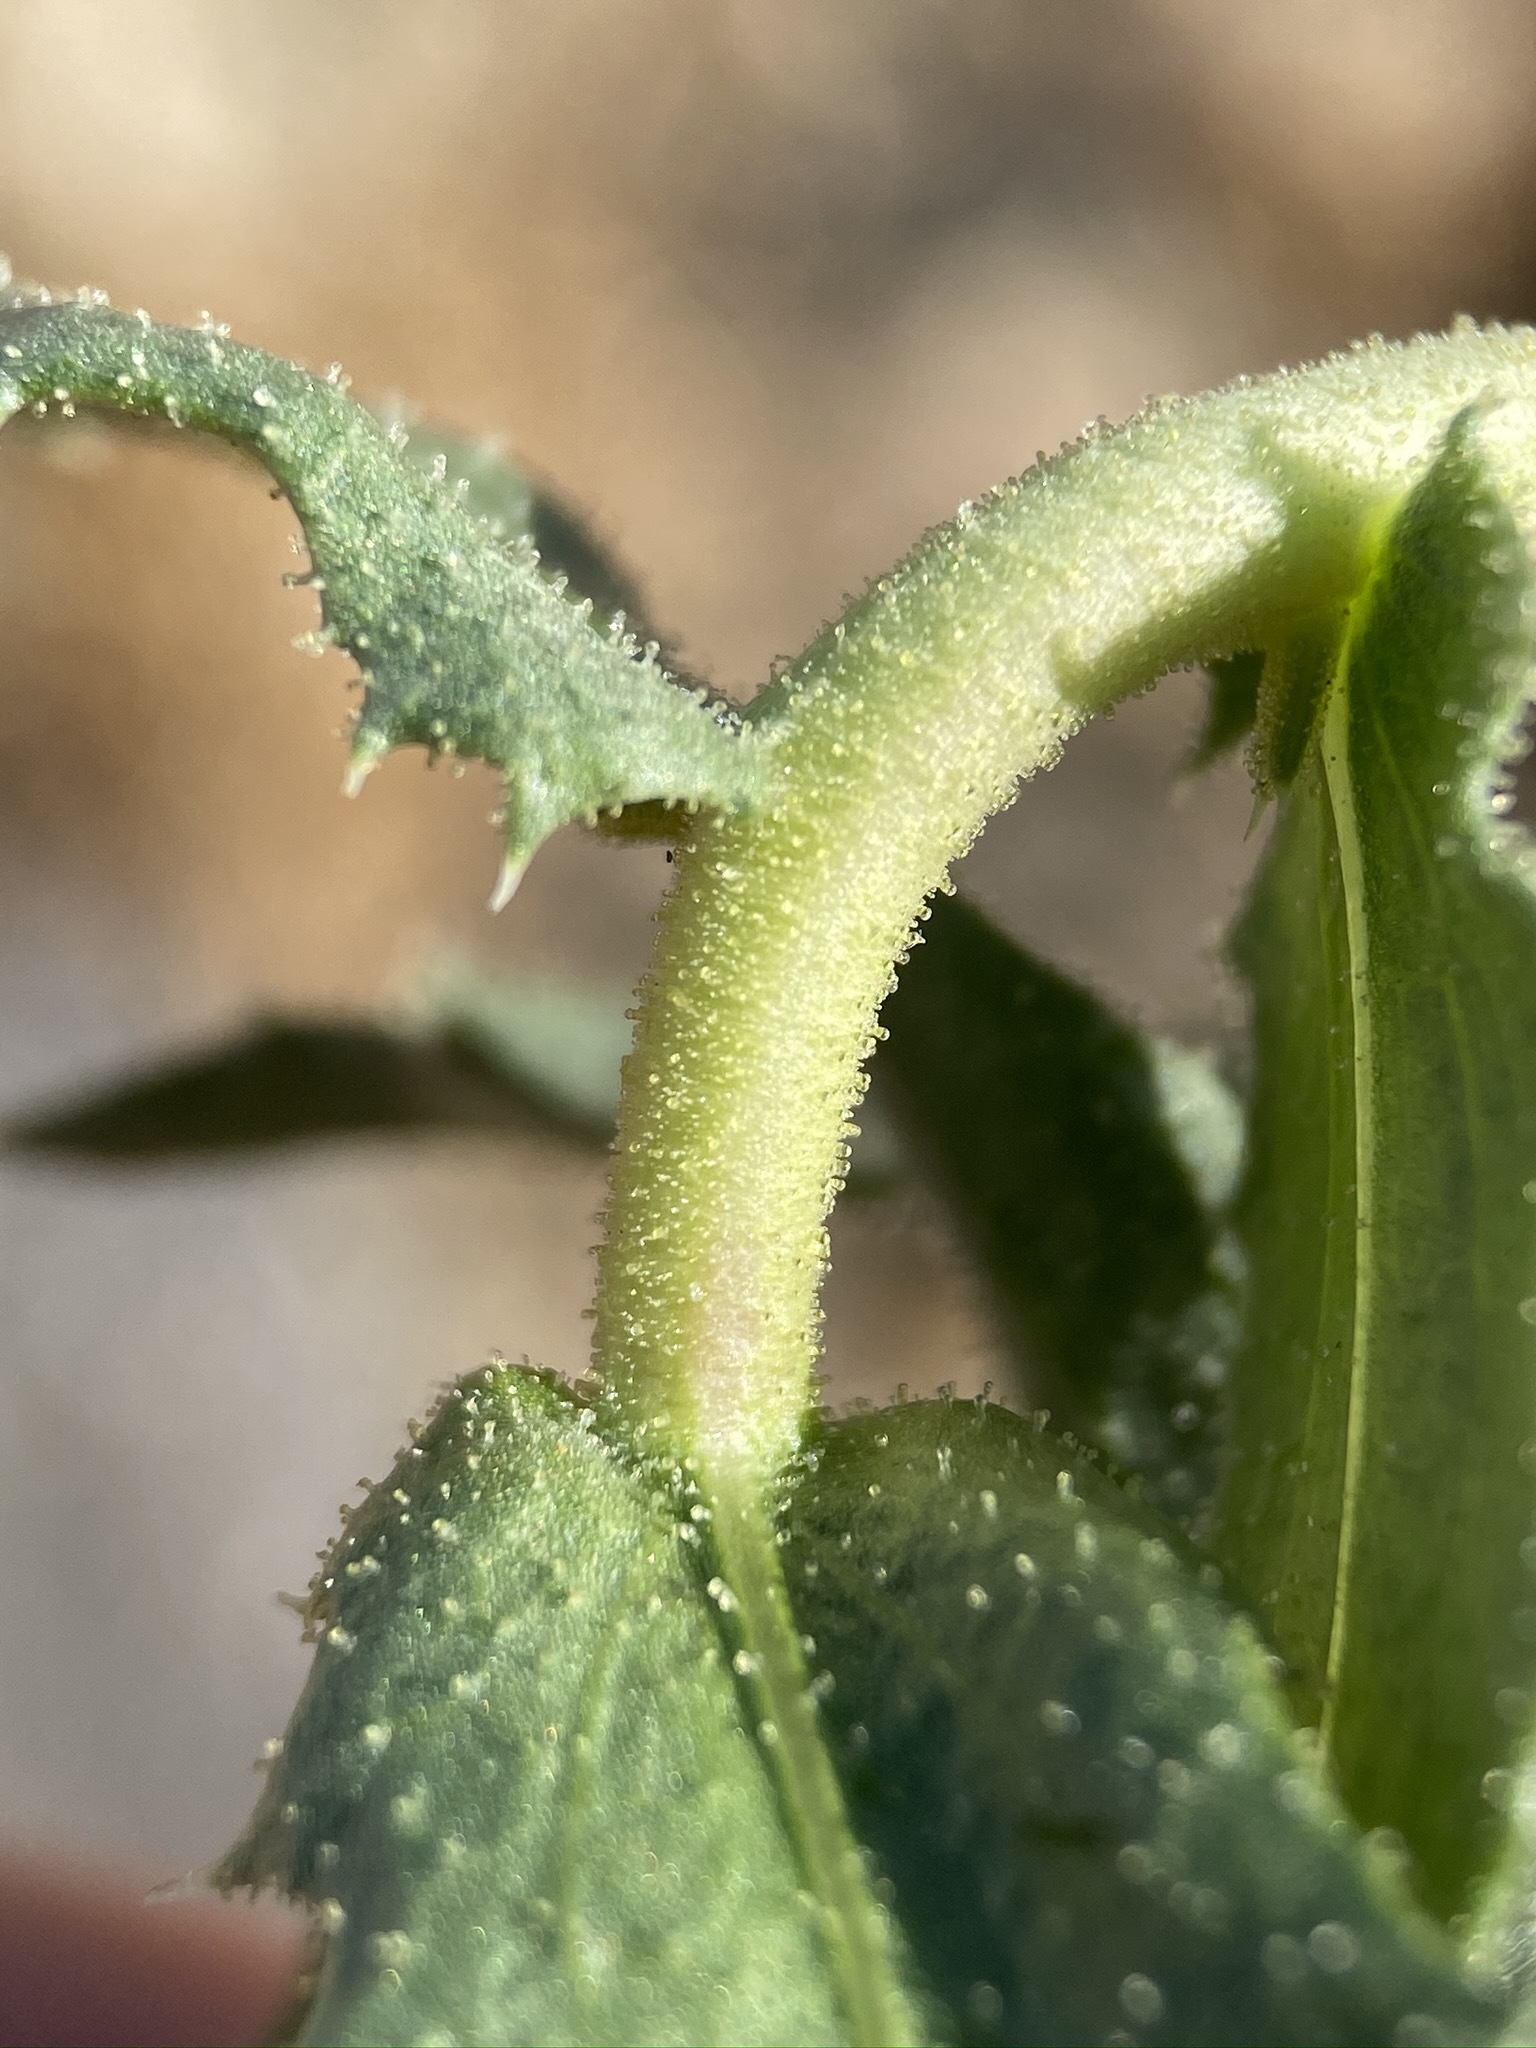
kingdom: Plantae
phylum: Tracheophyta
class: Magnoliopsida
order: Asterales
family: Asteraceae
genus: Xylorhiza
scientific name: Xylorhiza cognata
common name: Mecca woody-aster
